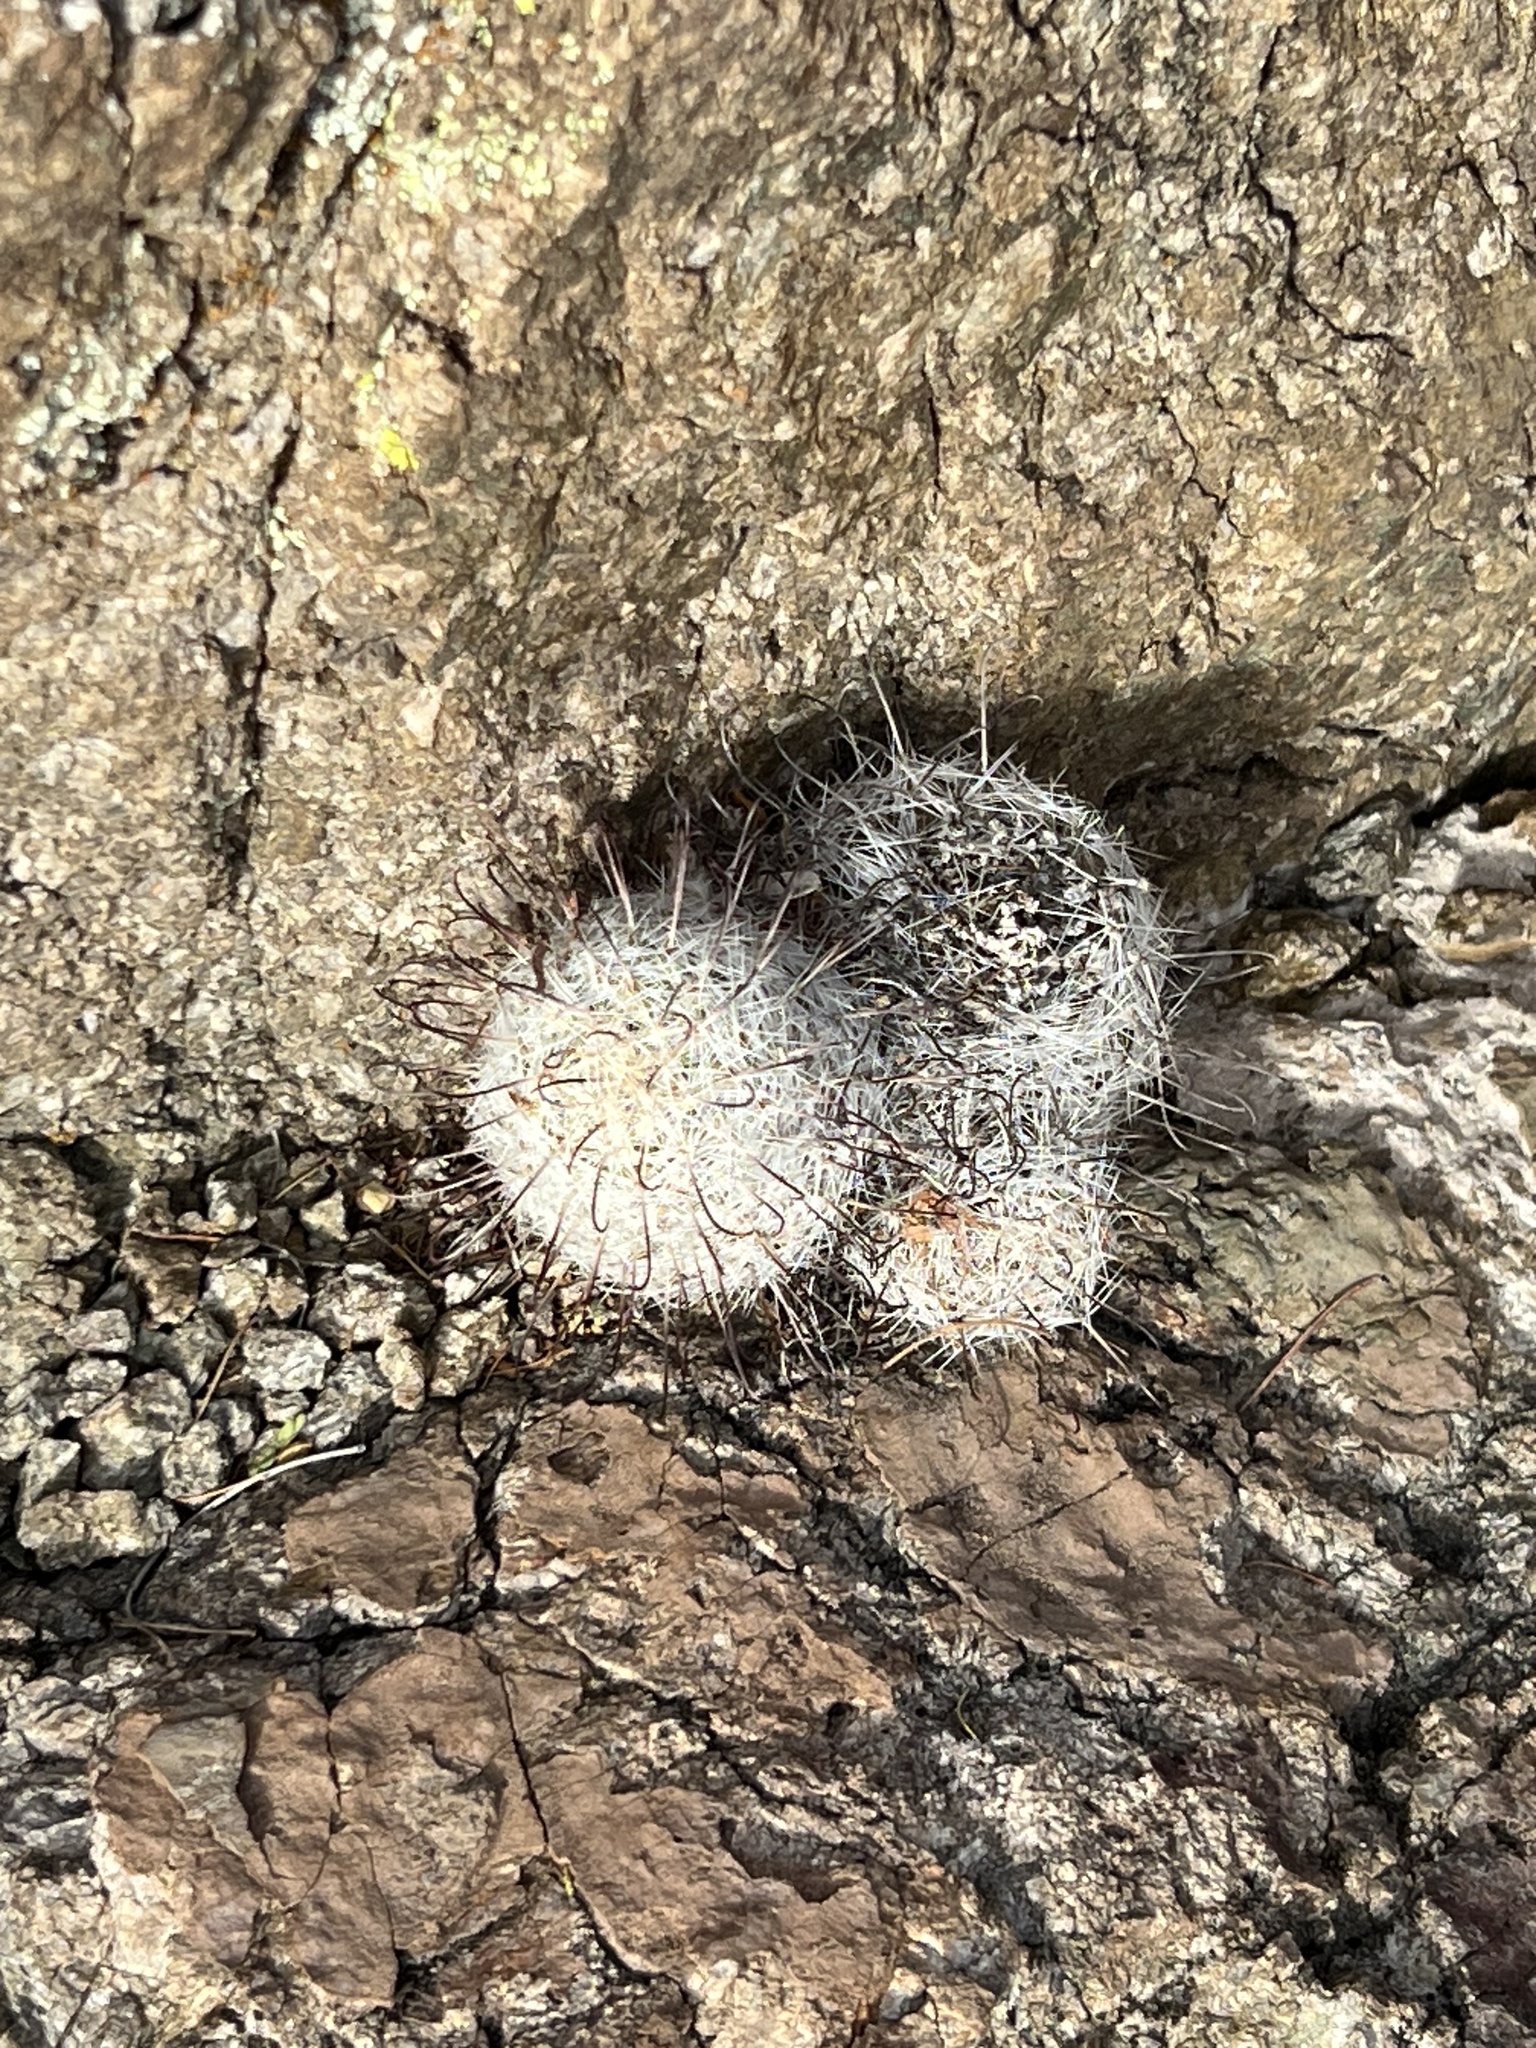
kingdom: Plantae
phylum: Tracheophyta
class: Magnoliopsida
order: Caryophyllales
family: Cactaceae
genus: Cochemiea
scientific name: Cochemiea grahamii
